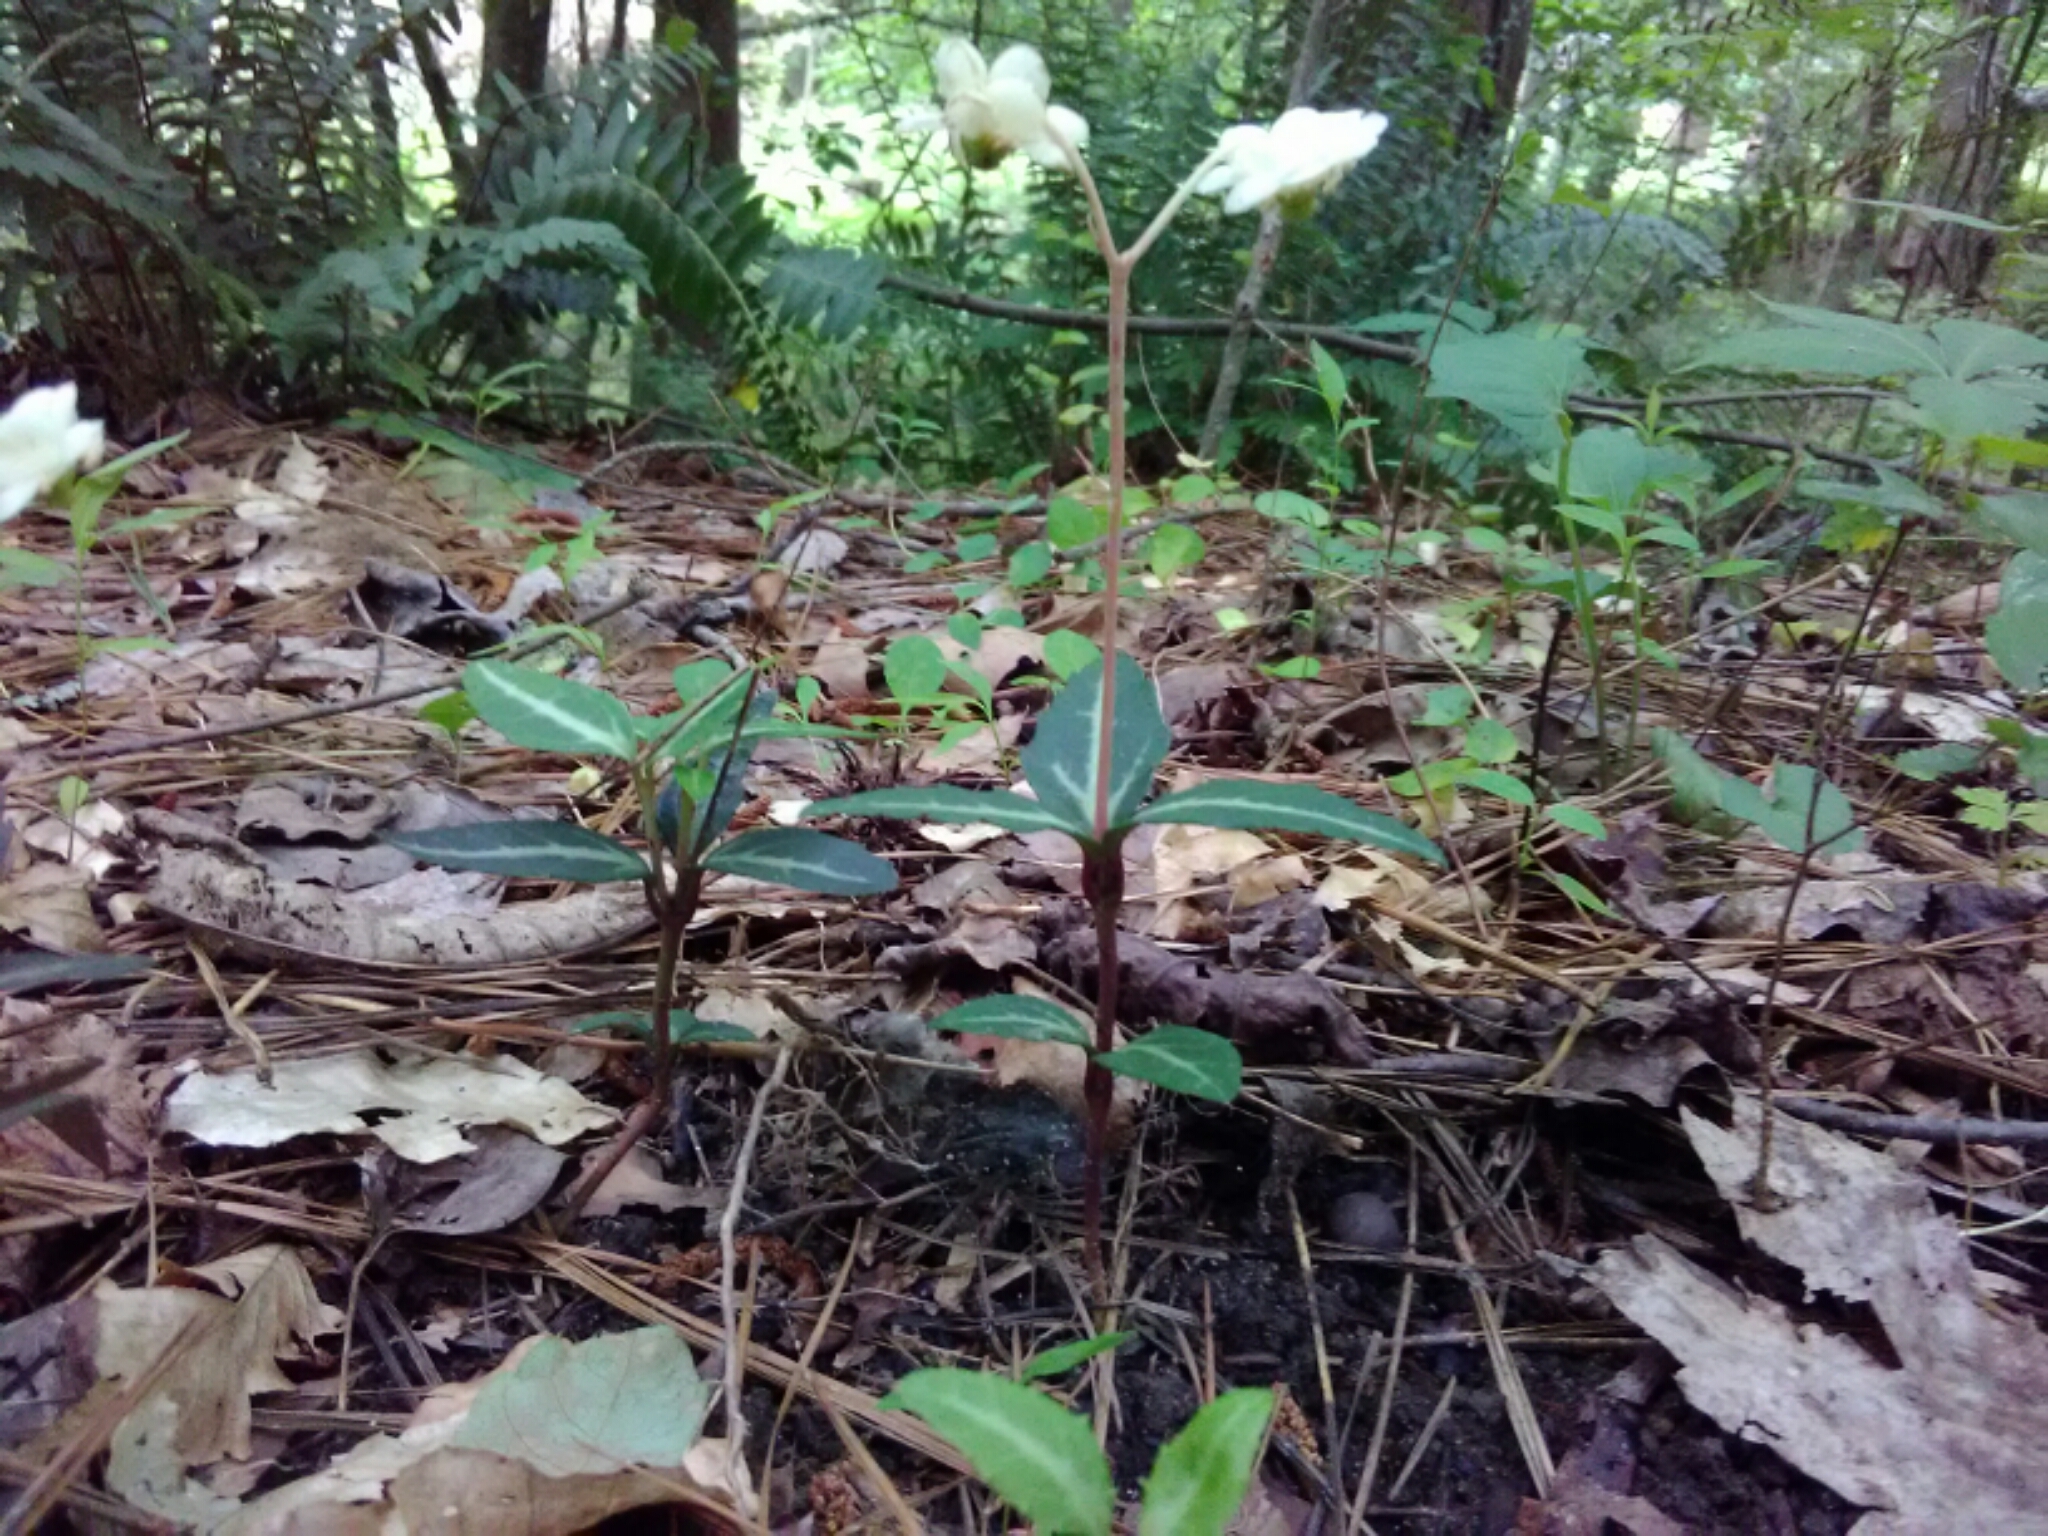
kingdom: Plantae
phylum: Tracheophyta
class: Magnoliopsida
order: Ericales
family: Ericaceae
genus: Chimaphila
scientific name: Chimaphila maculata
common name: Spotted pipsissewa
